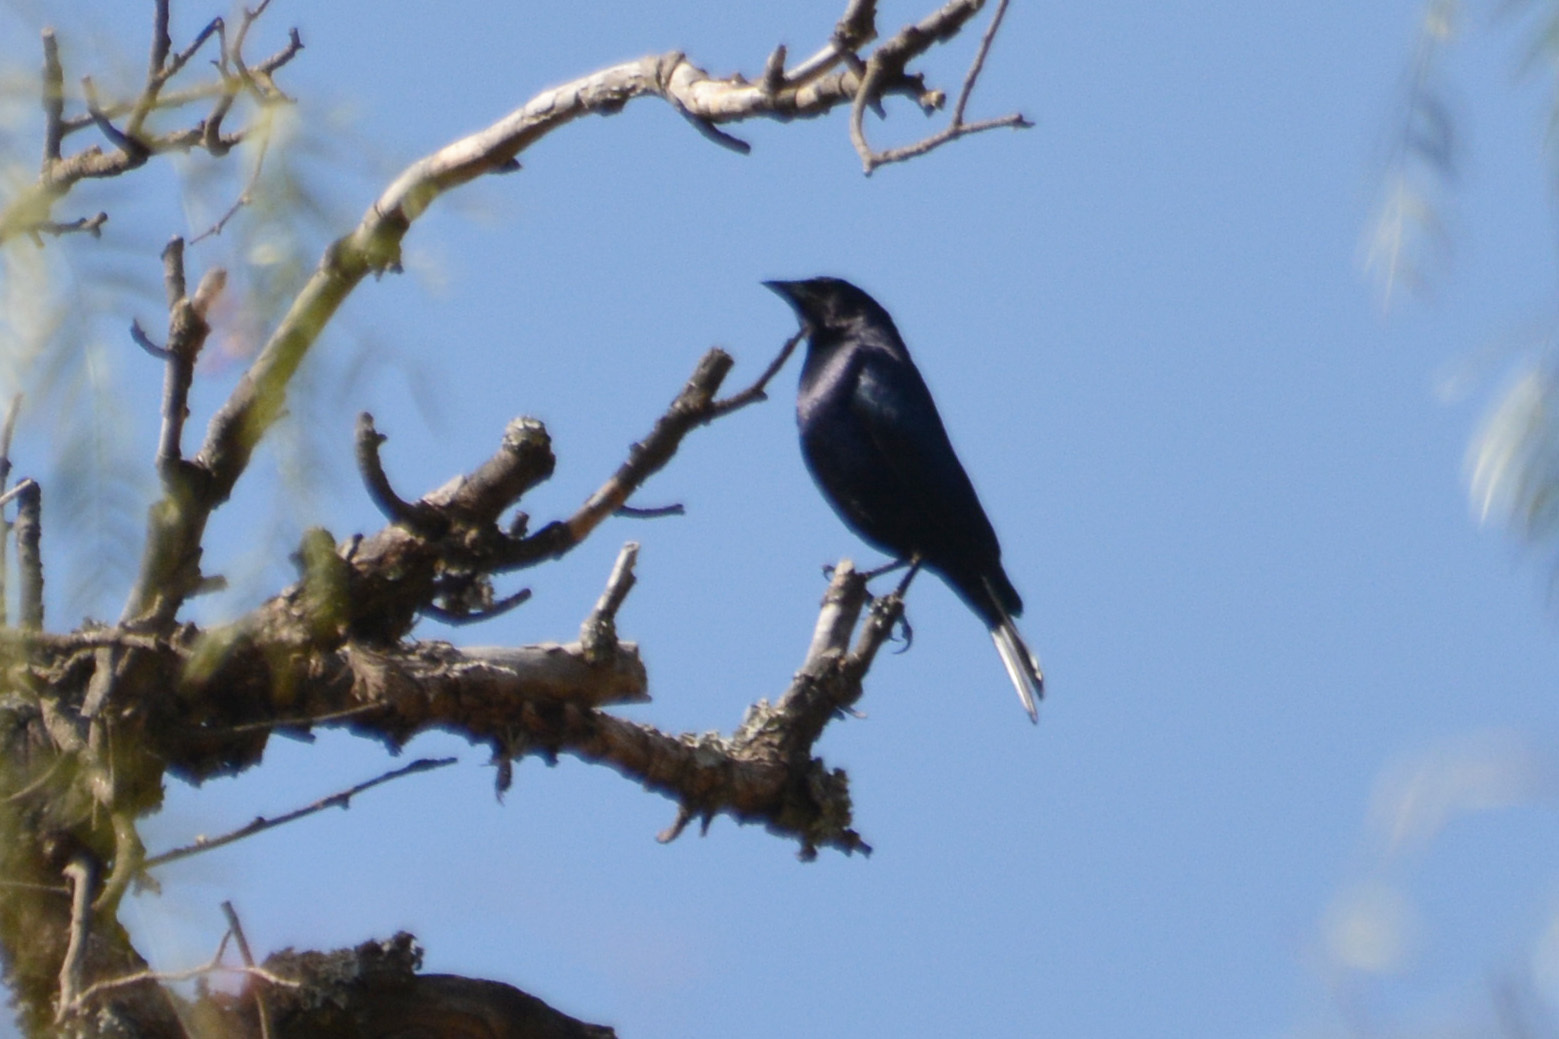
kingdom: Animalia
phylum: Chordata
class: Aves
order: Passeriformes
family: Icteridae
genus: Molothrus
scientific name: Molothrus bonariensis
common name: Shiny cowbird
